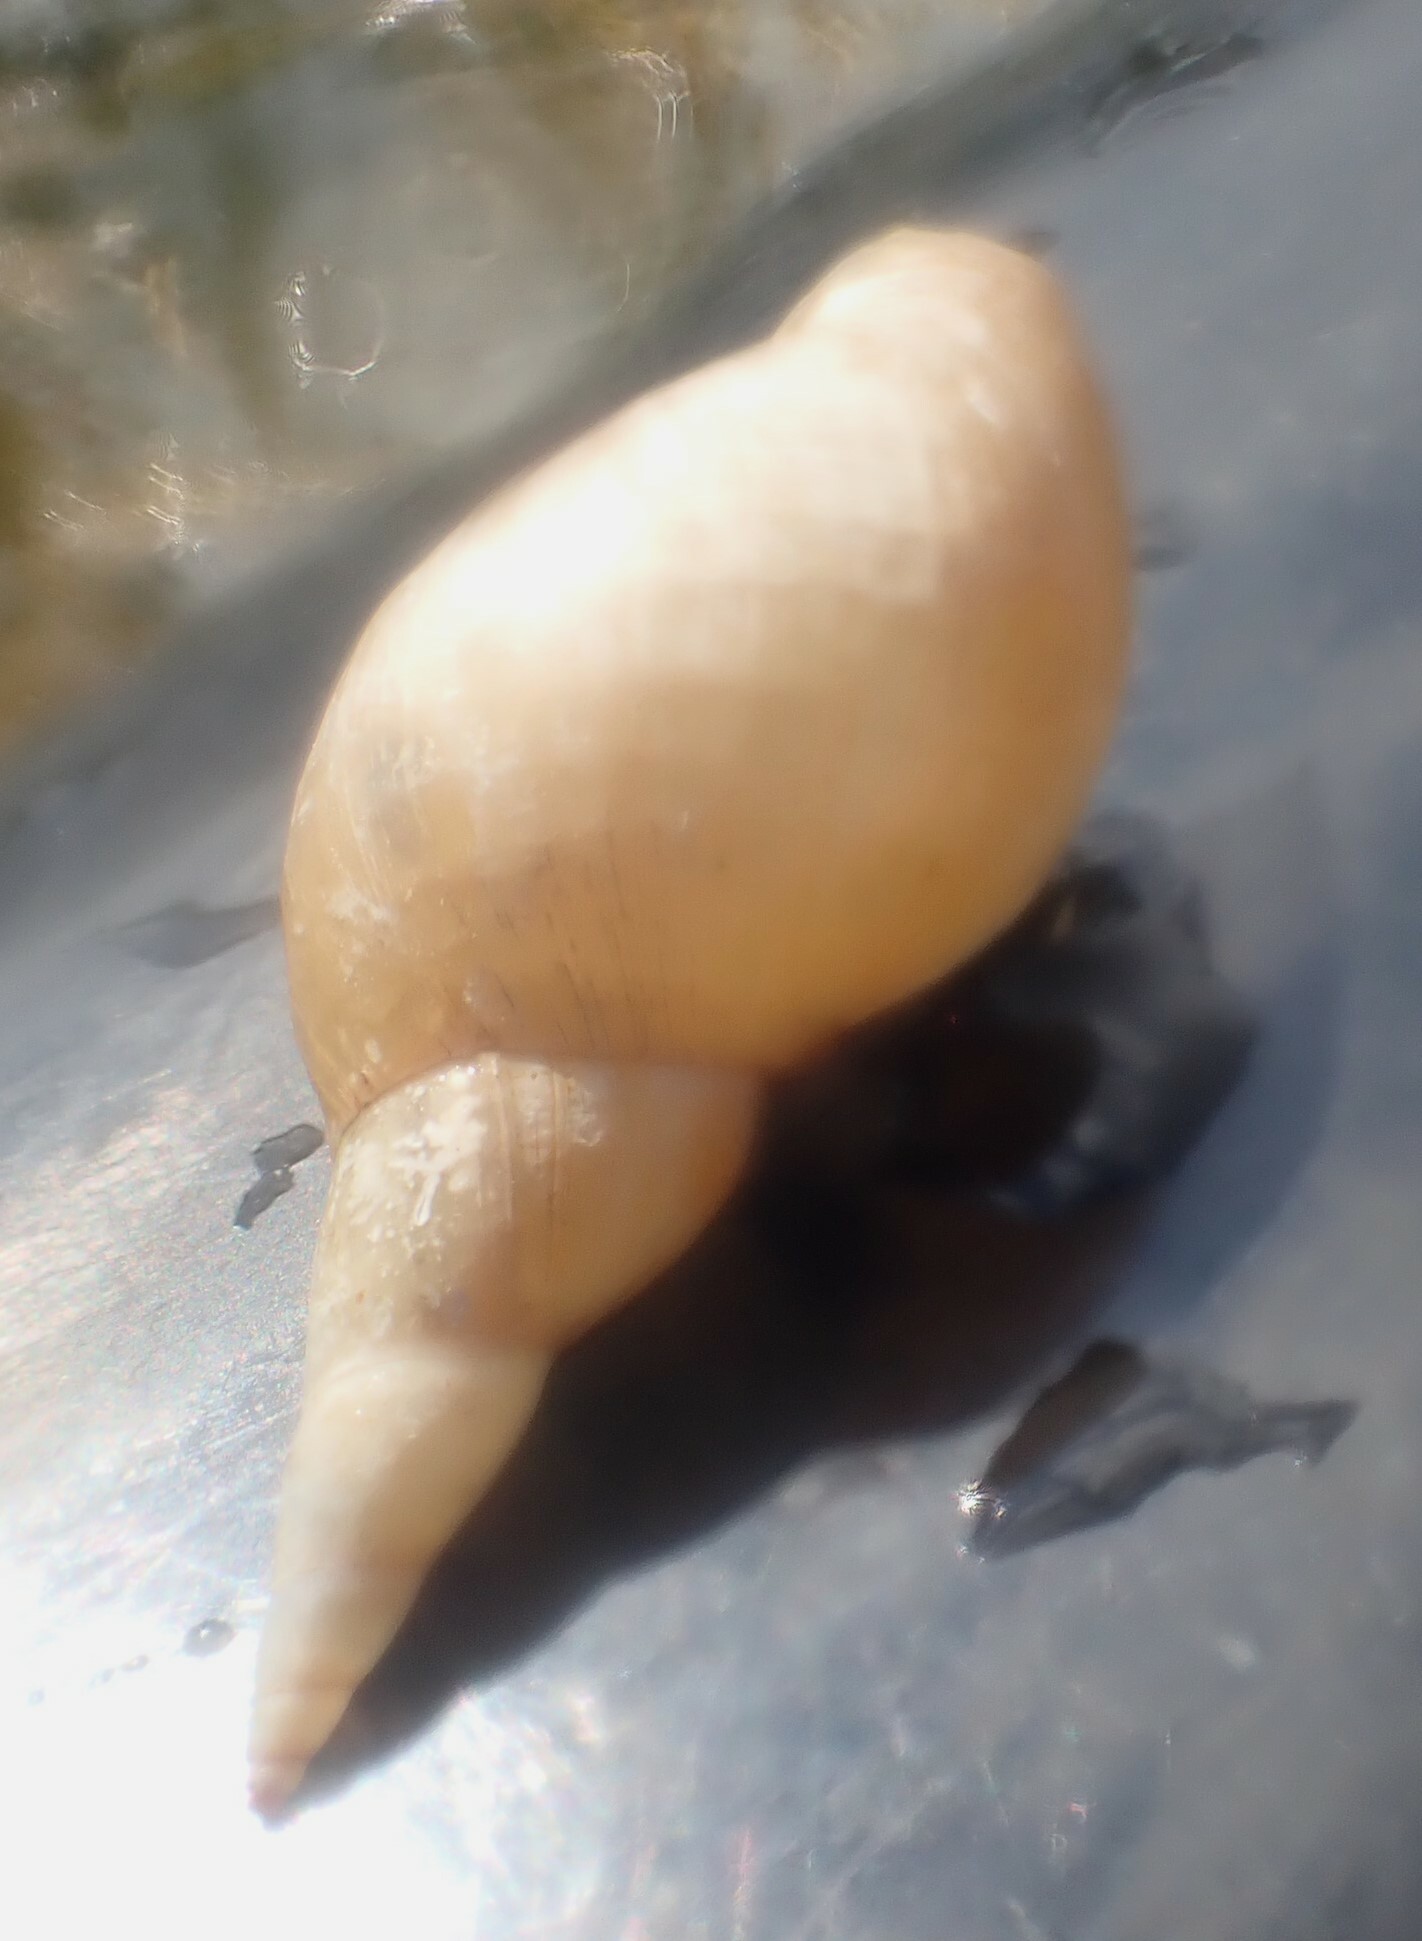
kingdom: Animalia
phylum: Mollusca
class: Gastropoda
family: Lymnaeidae
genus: Lymnaea
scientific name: Lymnaea stagnalis
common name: Great pond snail
